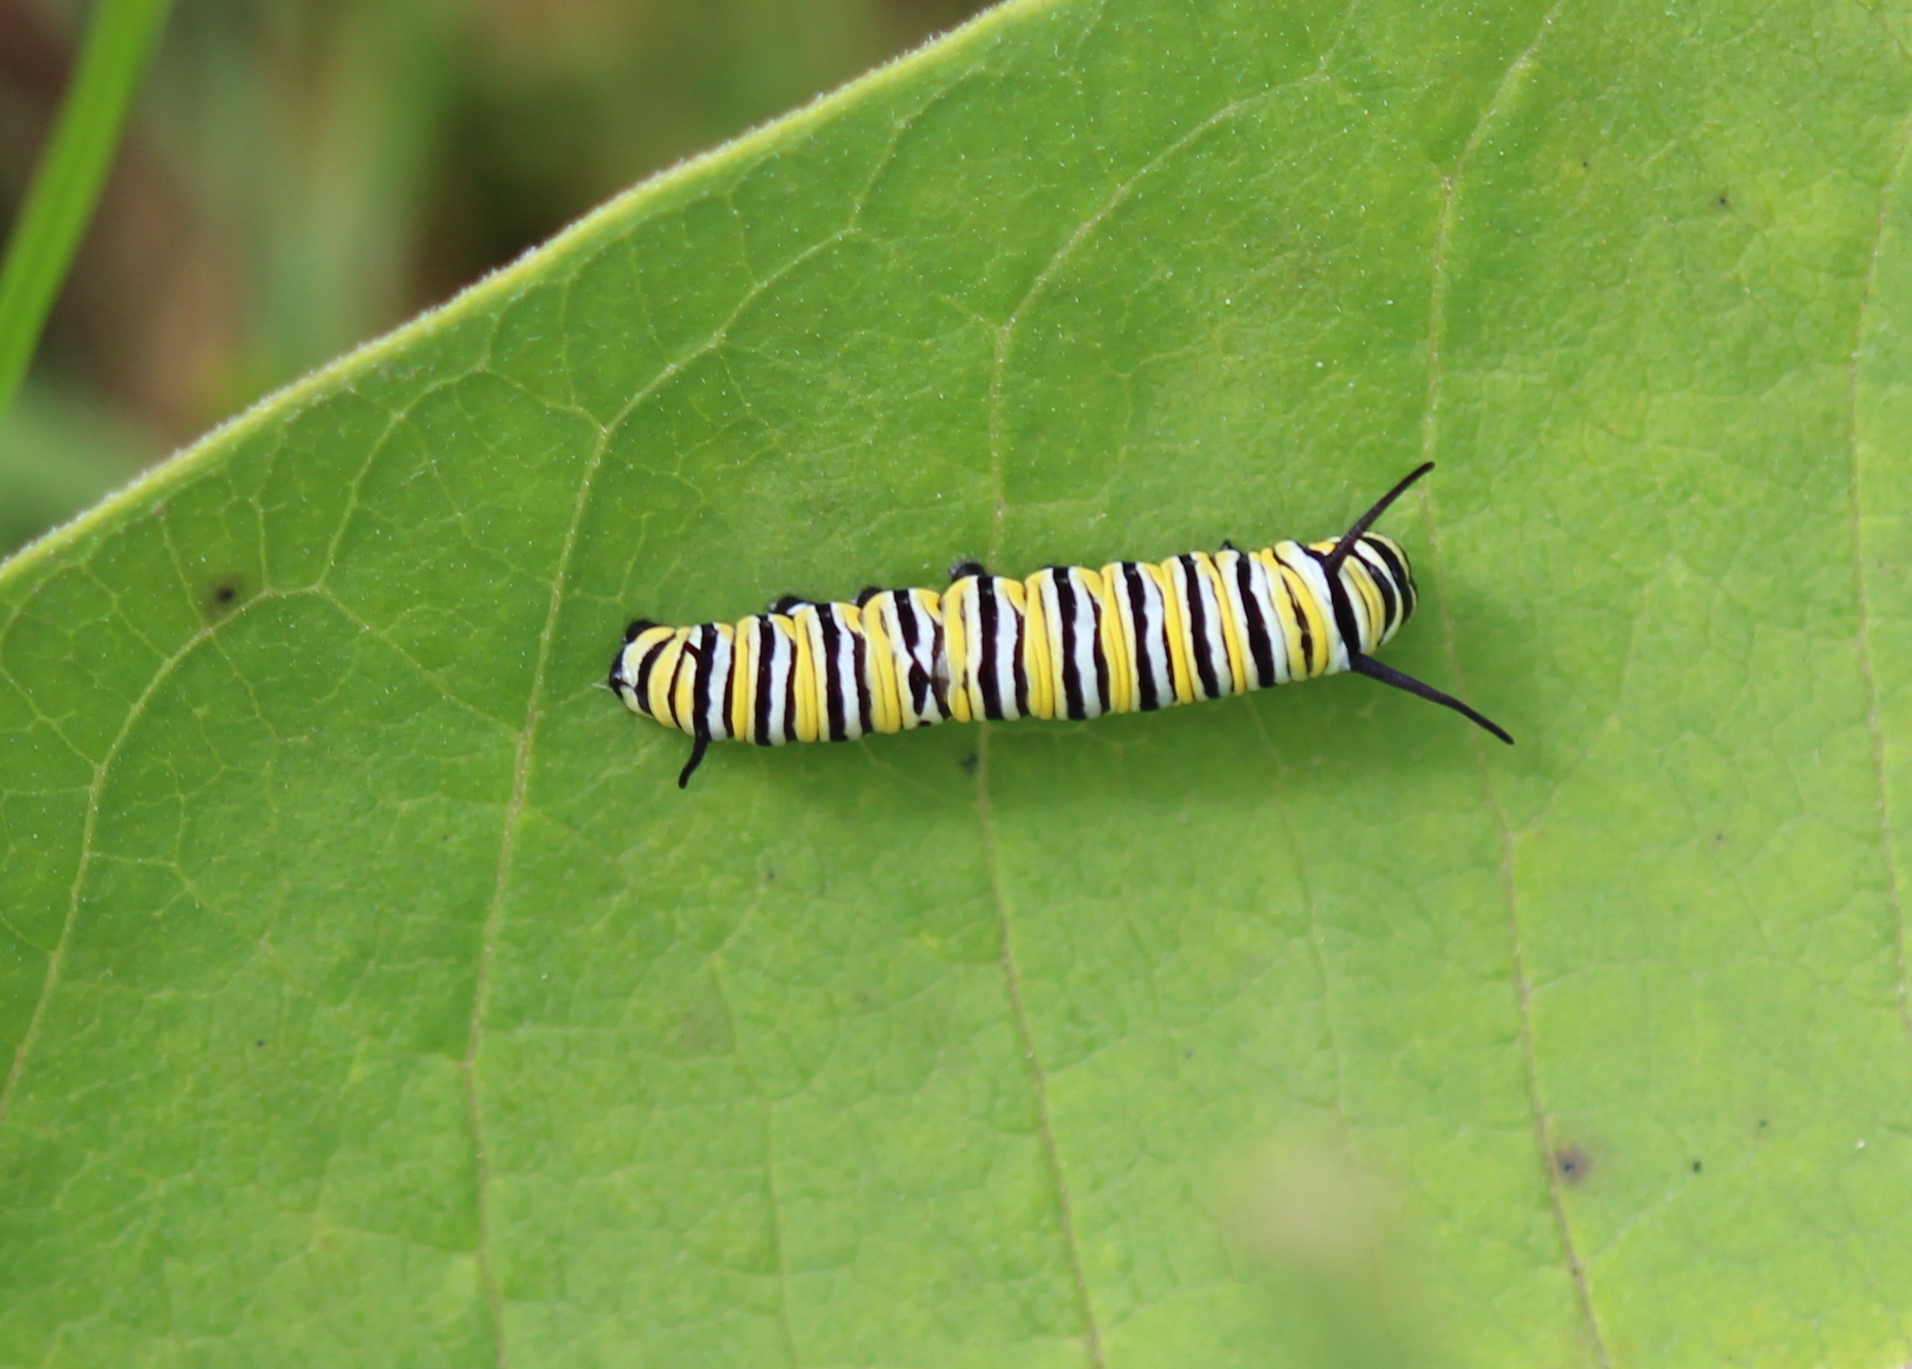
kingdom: Animalia
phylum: Arthropoda
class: Insecta
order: Lepidoptera
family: Nymphalidae
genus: Danaus
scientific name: Danaus plexippus
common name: Monarch
